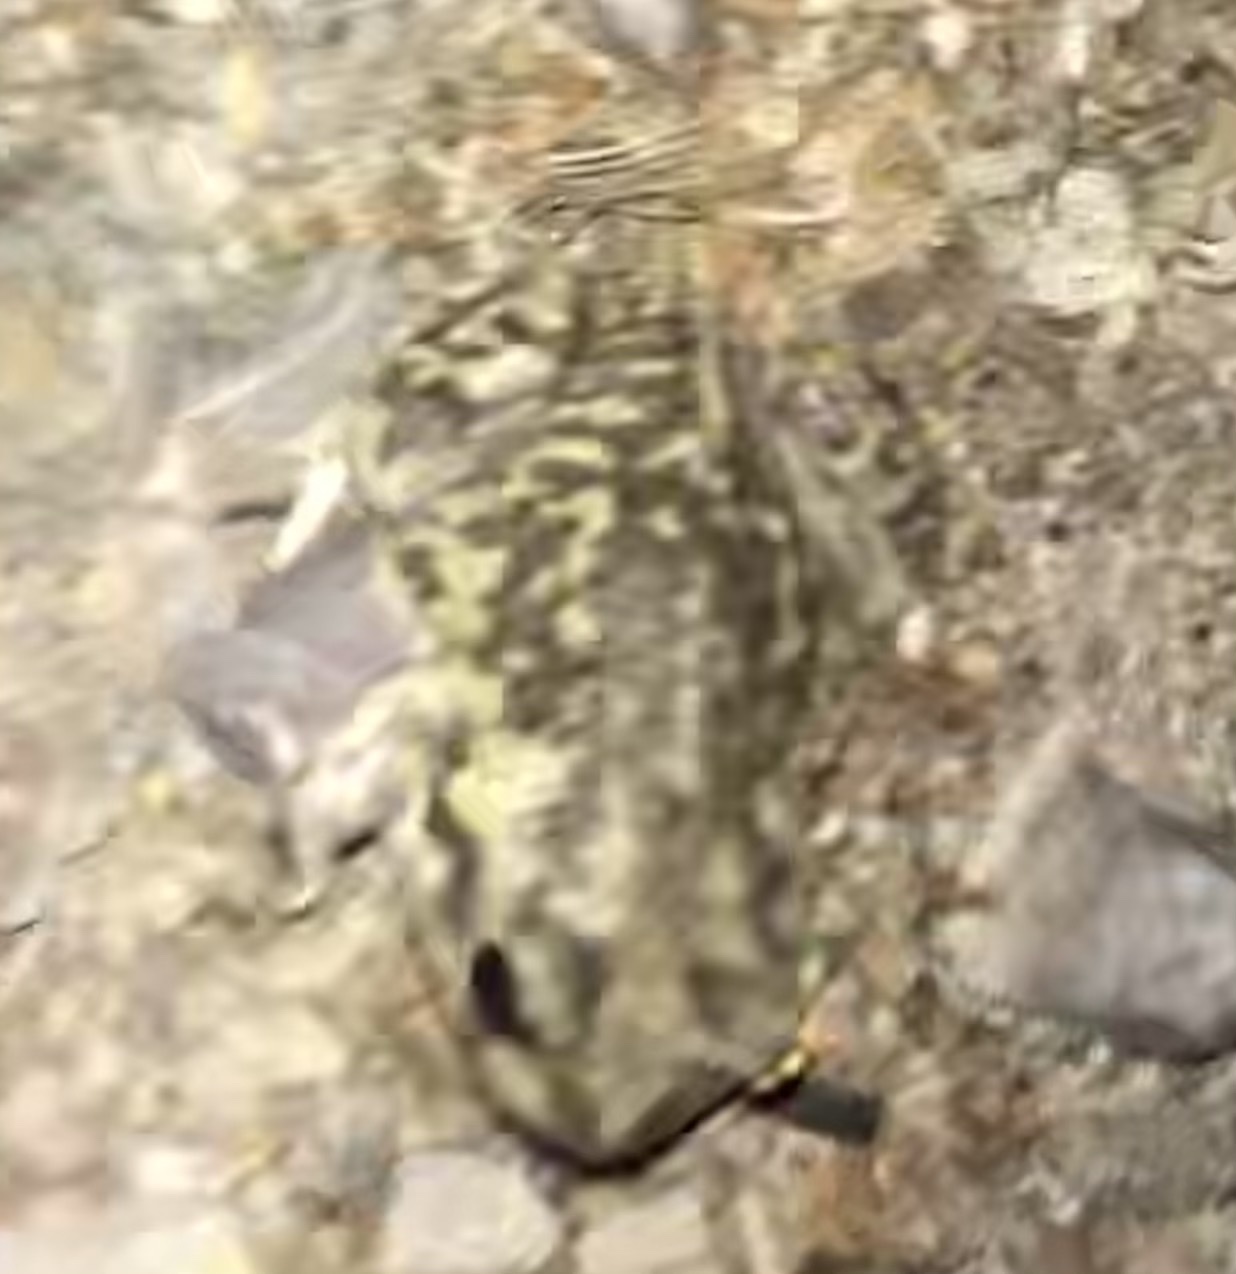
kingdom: Animalia
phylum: Chordata
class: Amphibia
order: Anura
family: Scaphiopodidae
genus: Scaphiopus
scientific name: Scaphiopus couchii
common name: Couch's spadefoot toad
